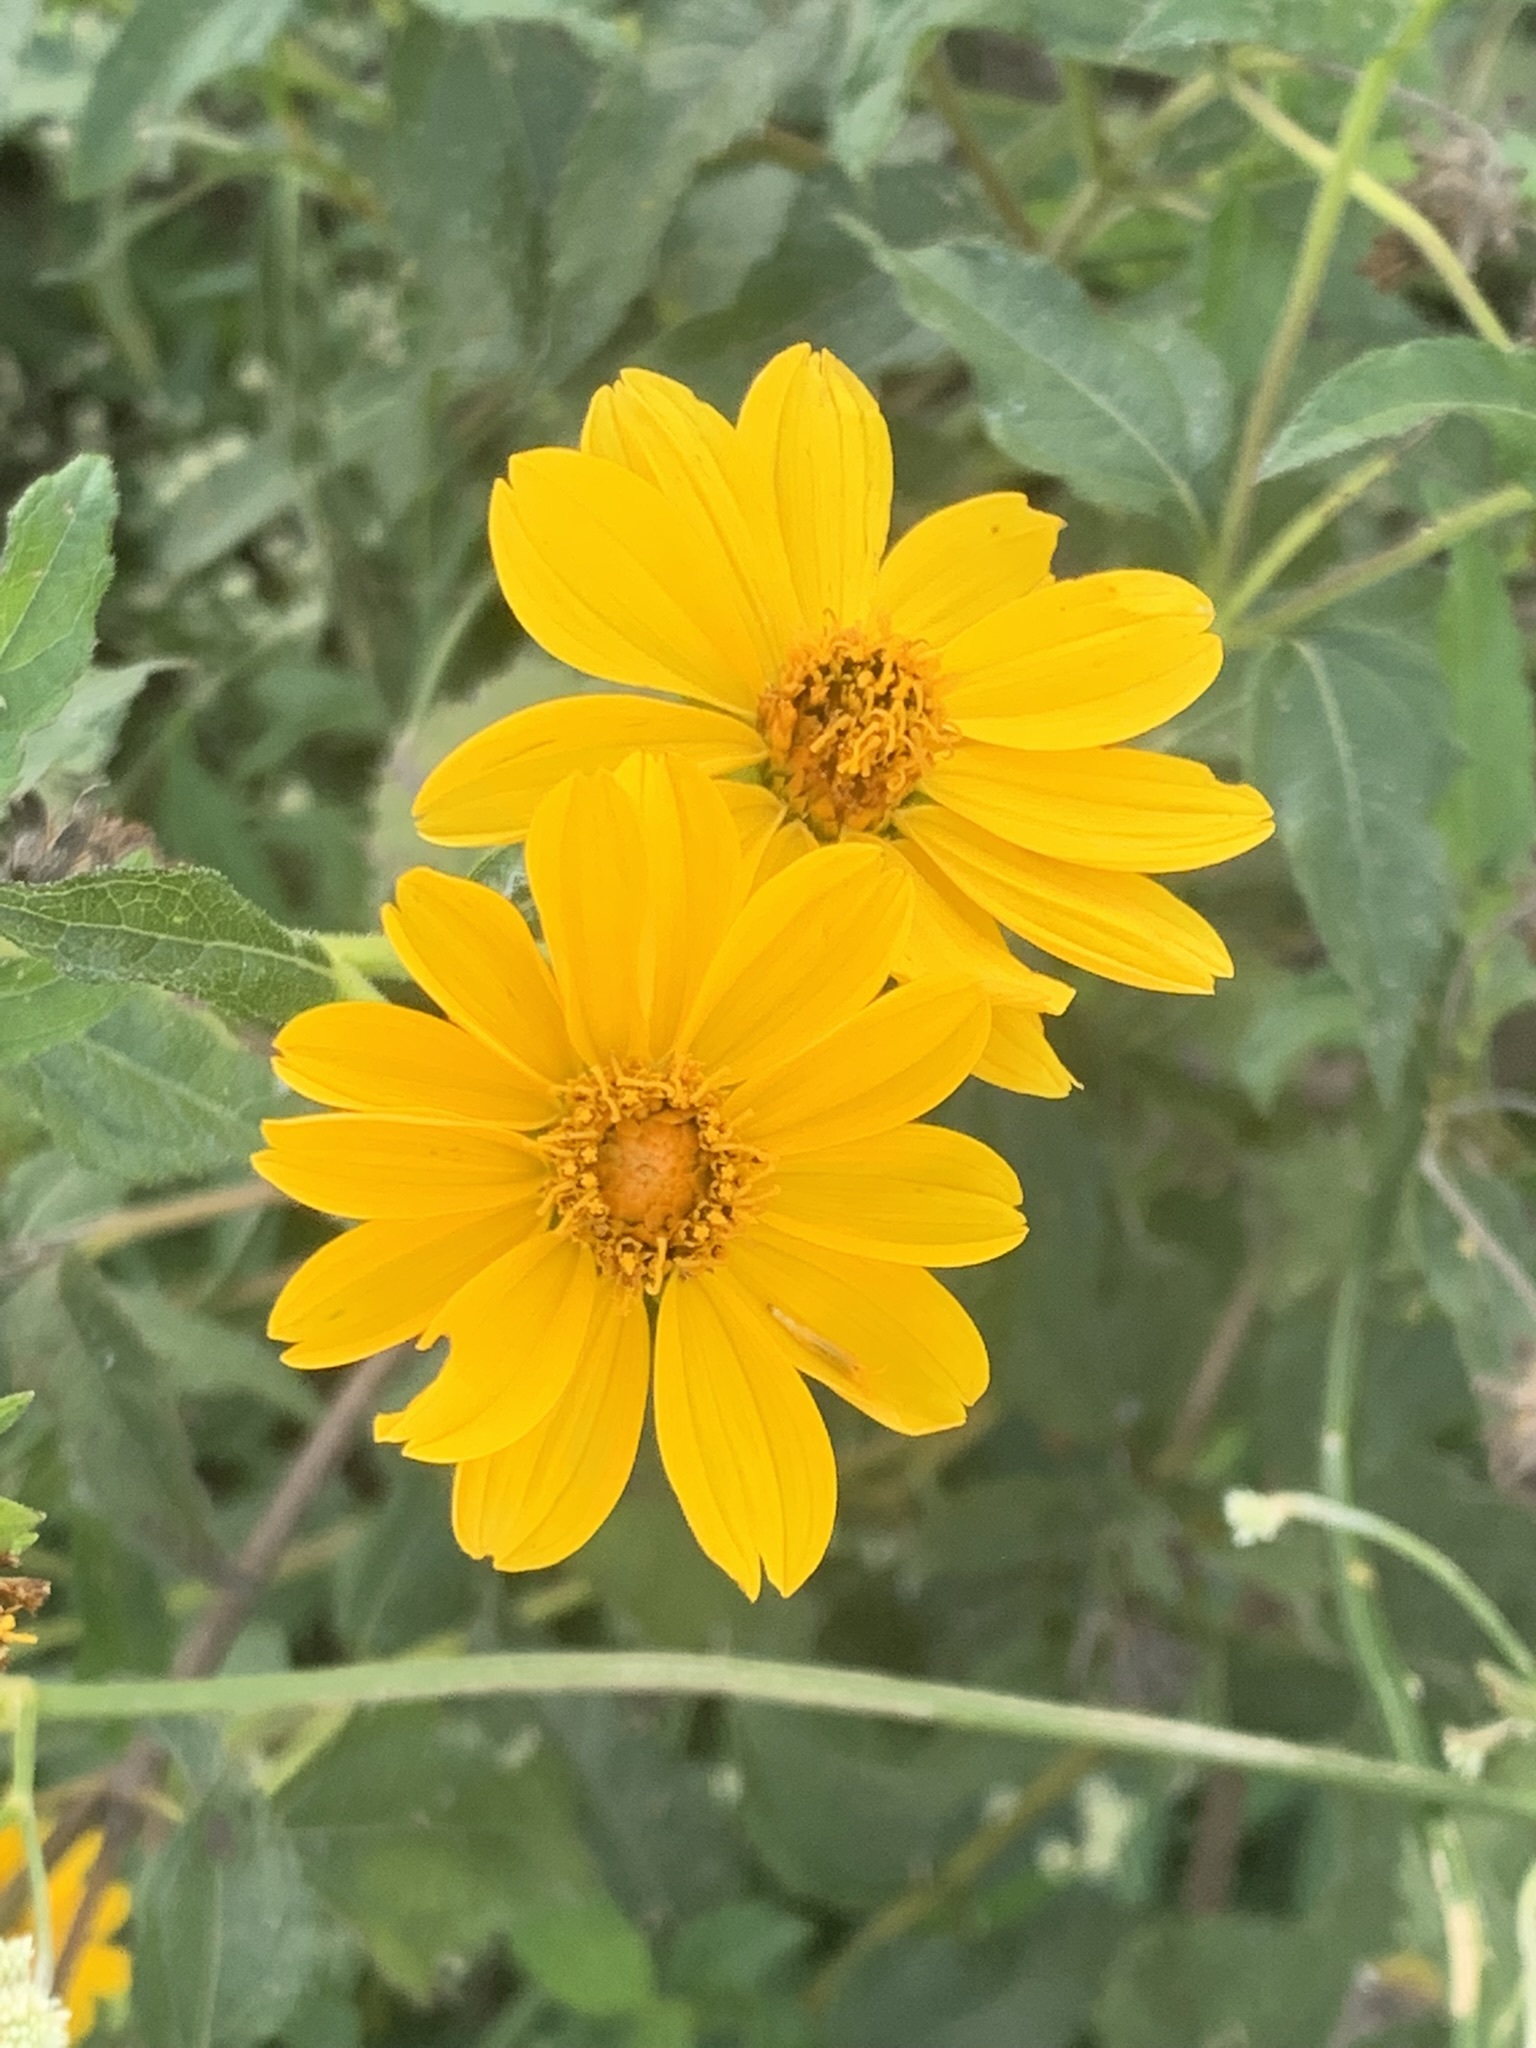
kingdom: Plantae
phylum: Tracheophyta
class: Magnoliopsida
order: Asterales
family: Asteraceae
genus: Wedelia
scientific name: Wedelia silphioides
